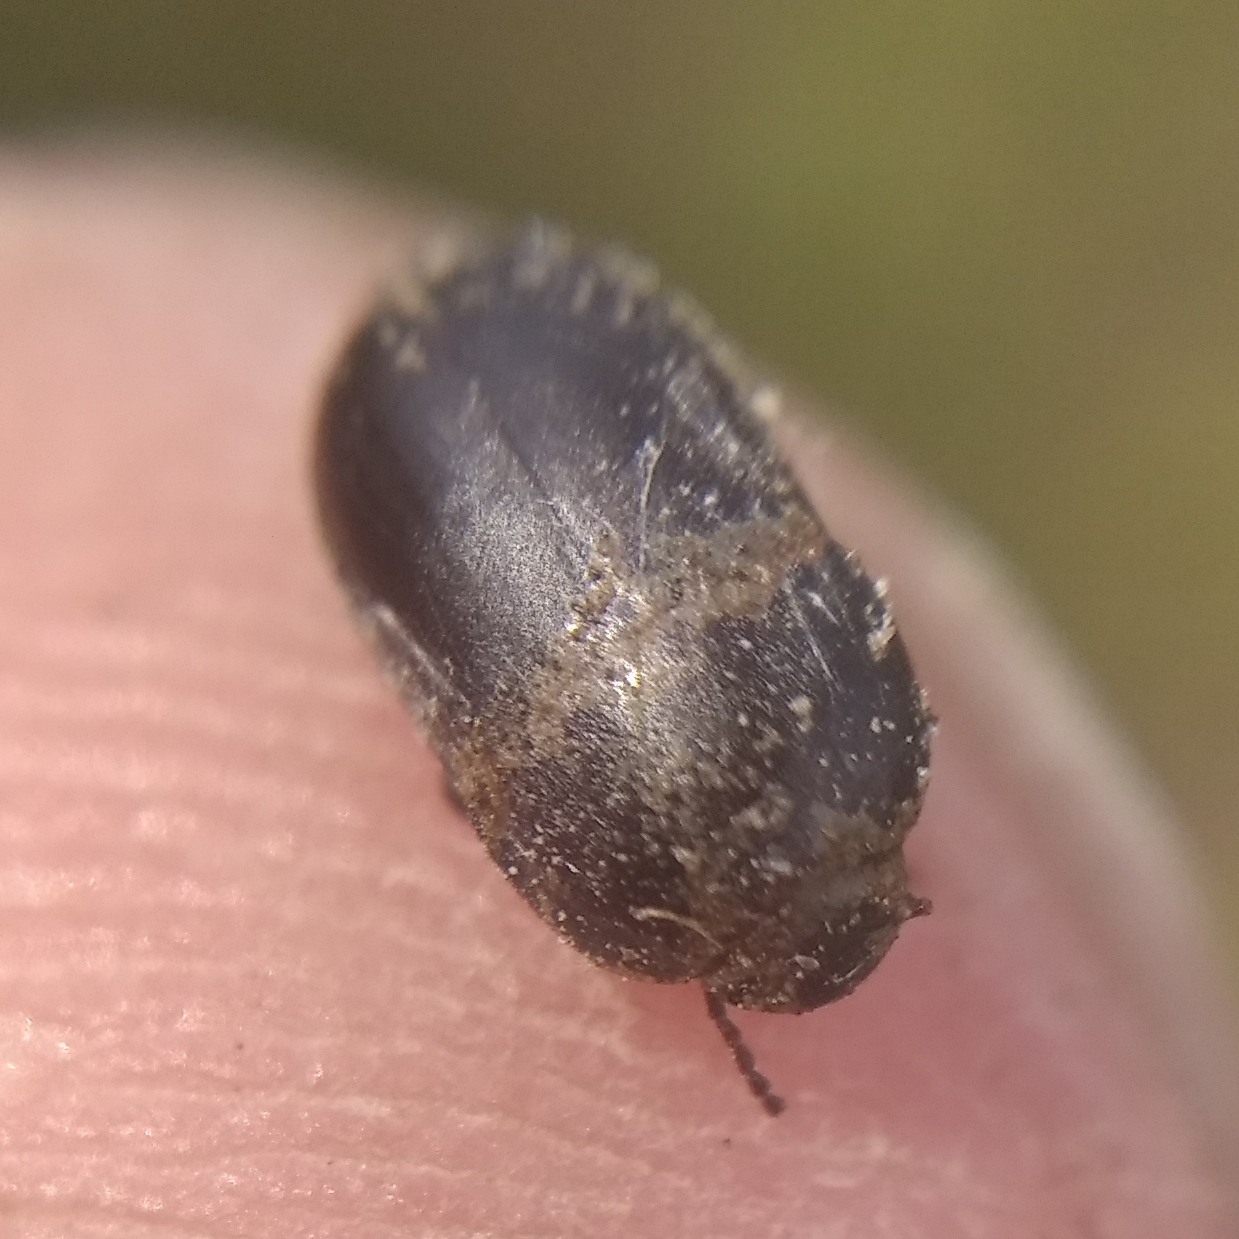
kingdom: Animalia
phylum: Arthropoda
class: Insecta
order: Coleoptera
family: Tenebrionidae
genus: Crypticus
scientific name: Crypticus quisquilius
